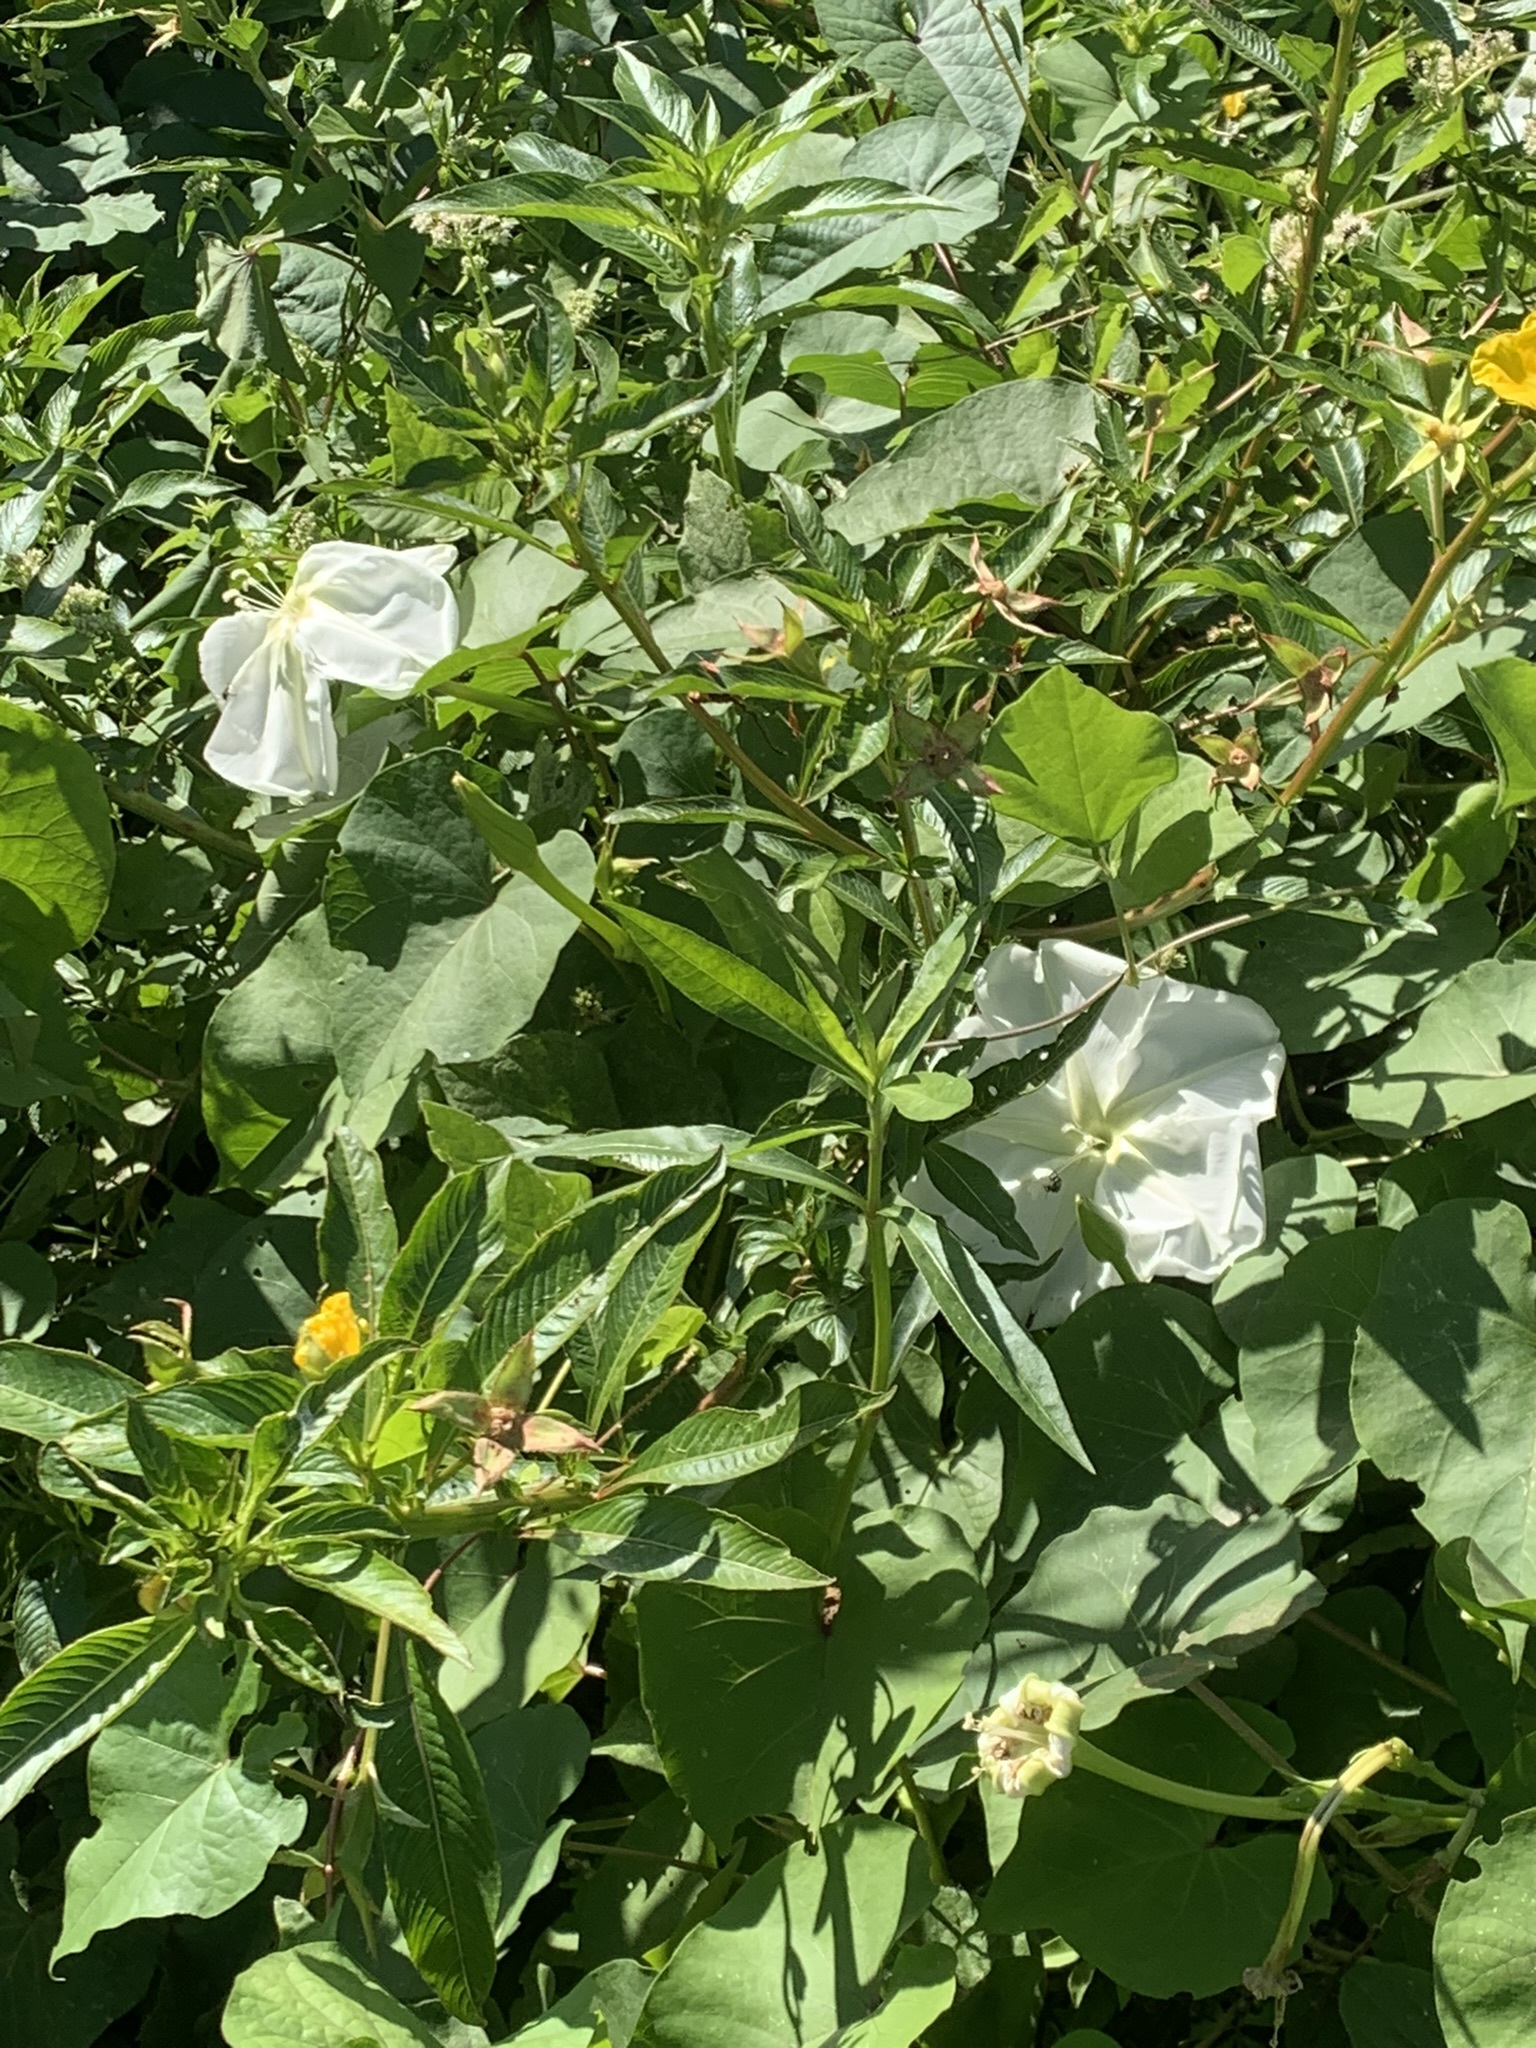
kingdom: Plantae
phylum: Tracheophyta
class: Magnoliopsida
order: Solanales
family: Convolvulaceae
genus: Ipomoea
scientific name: Ipomoea alba
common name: Moonflower
